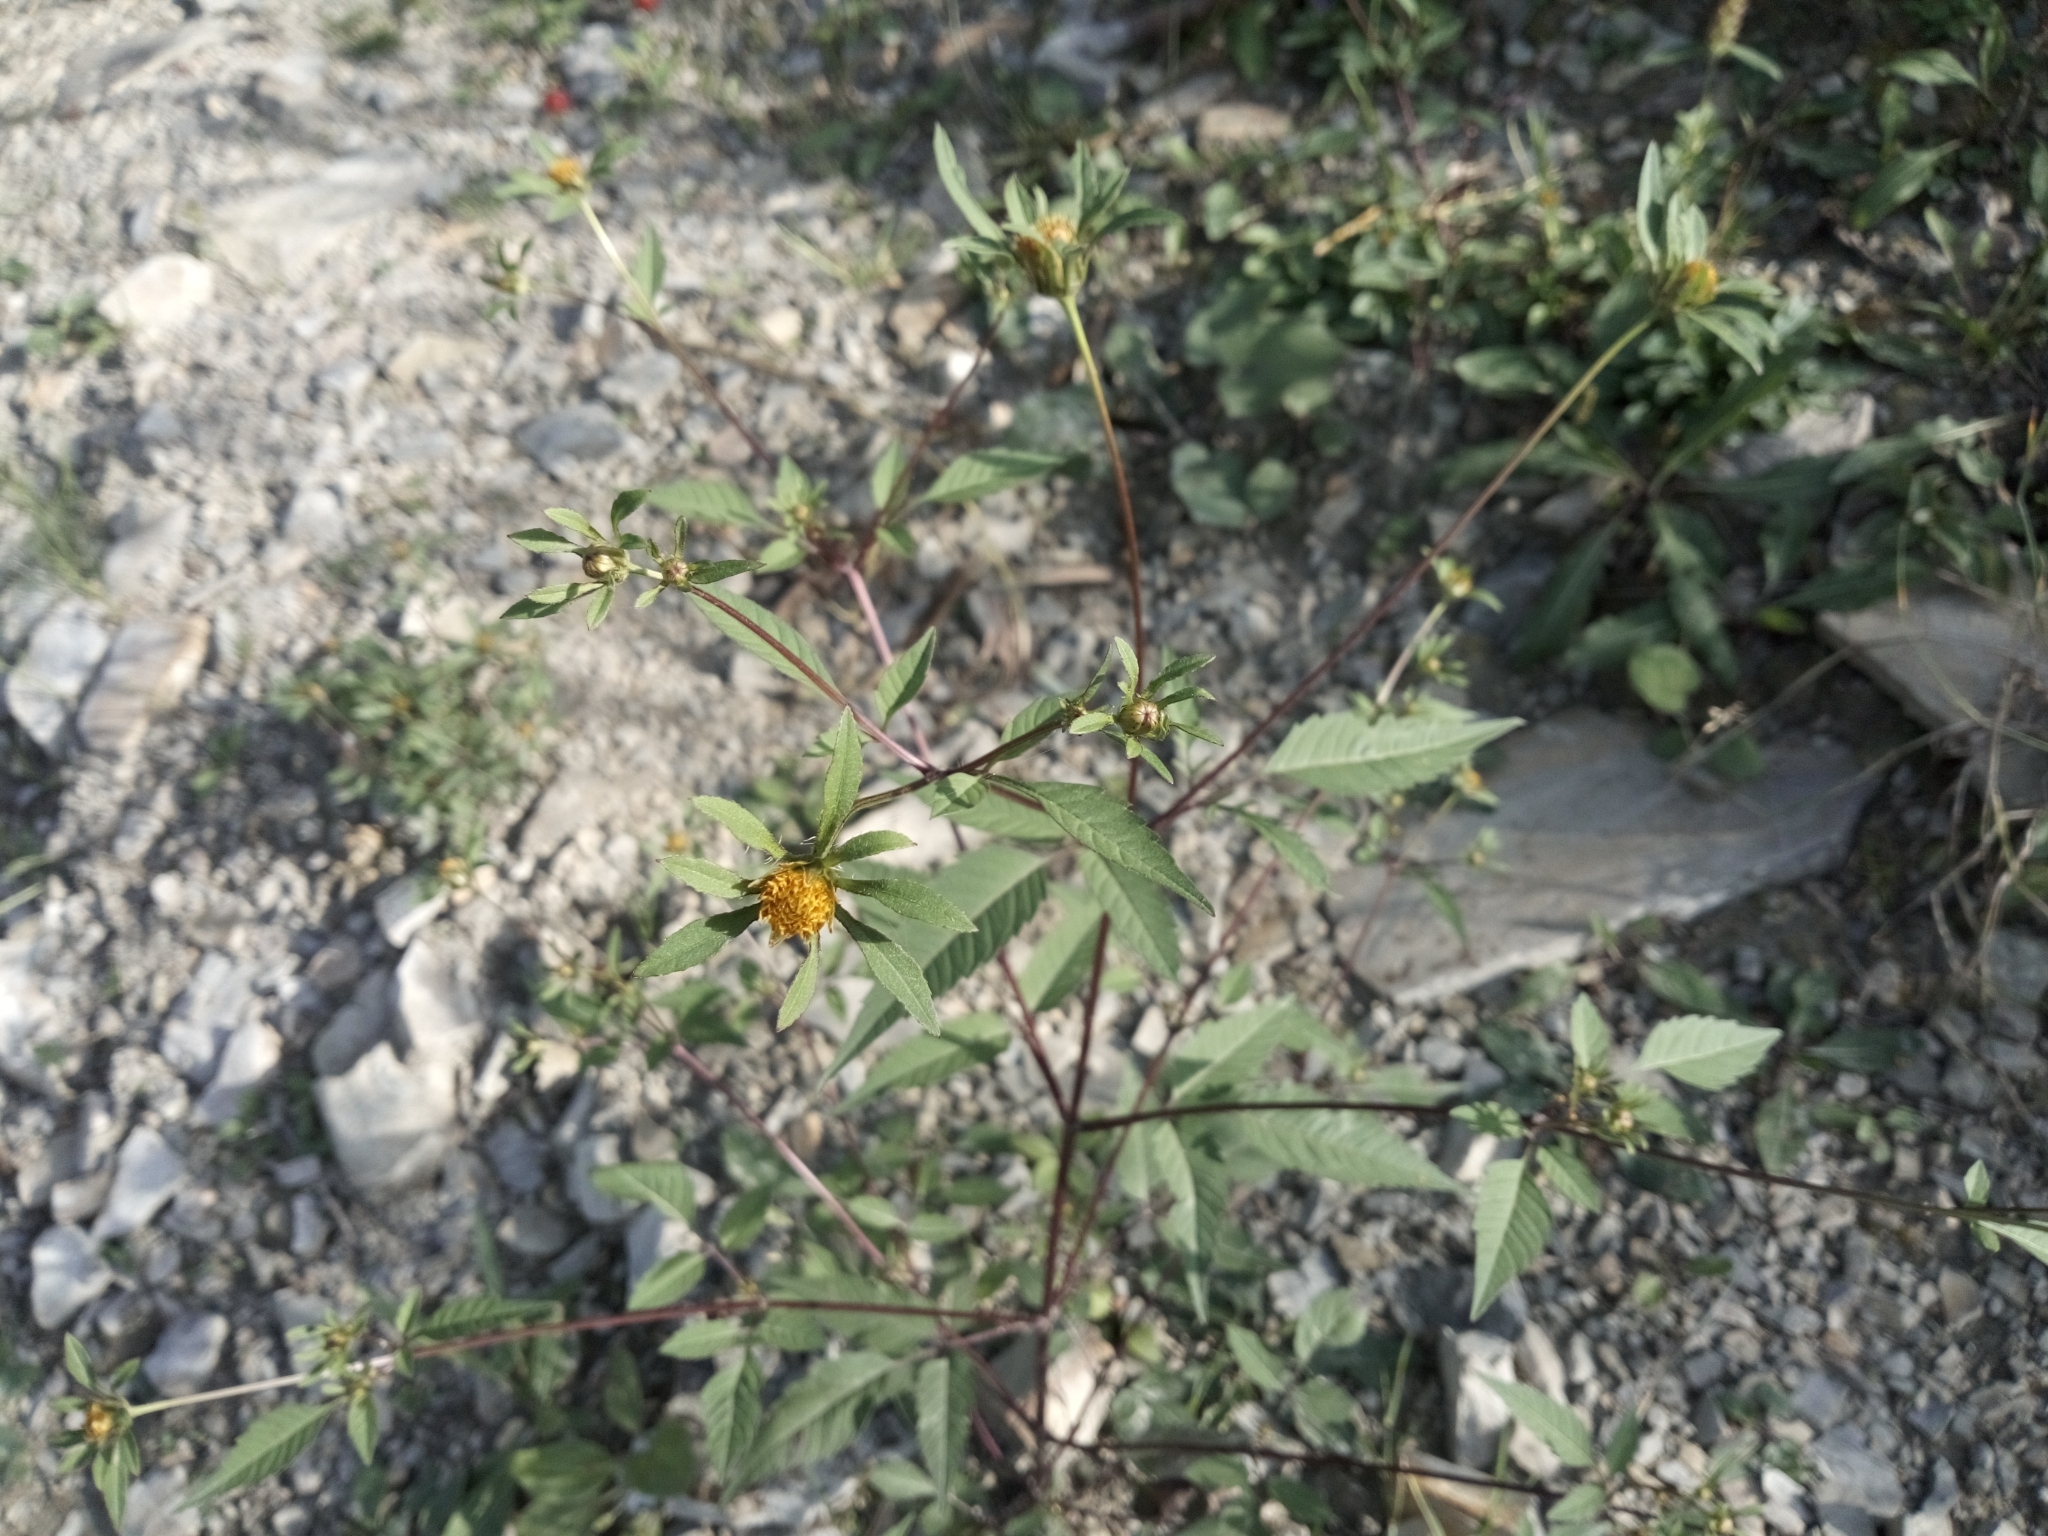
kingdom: Plantae
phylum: Tracheophyta
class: Magnoliopsida
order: Asterales
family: Asteraceae
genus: Bidens
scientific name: Bidens frondosa
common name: Beggarticks
